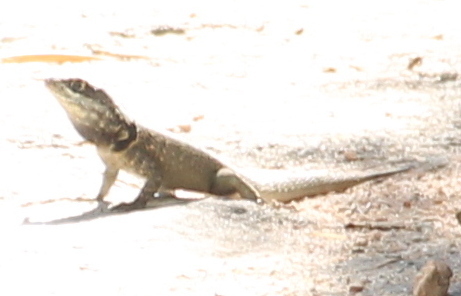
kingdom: Animalia
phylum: Chordata
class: Squamata
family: Tropiduridae
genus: Tropidurus
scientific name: Tropidurus torquatus
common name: Amazon lava lizard
